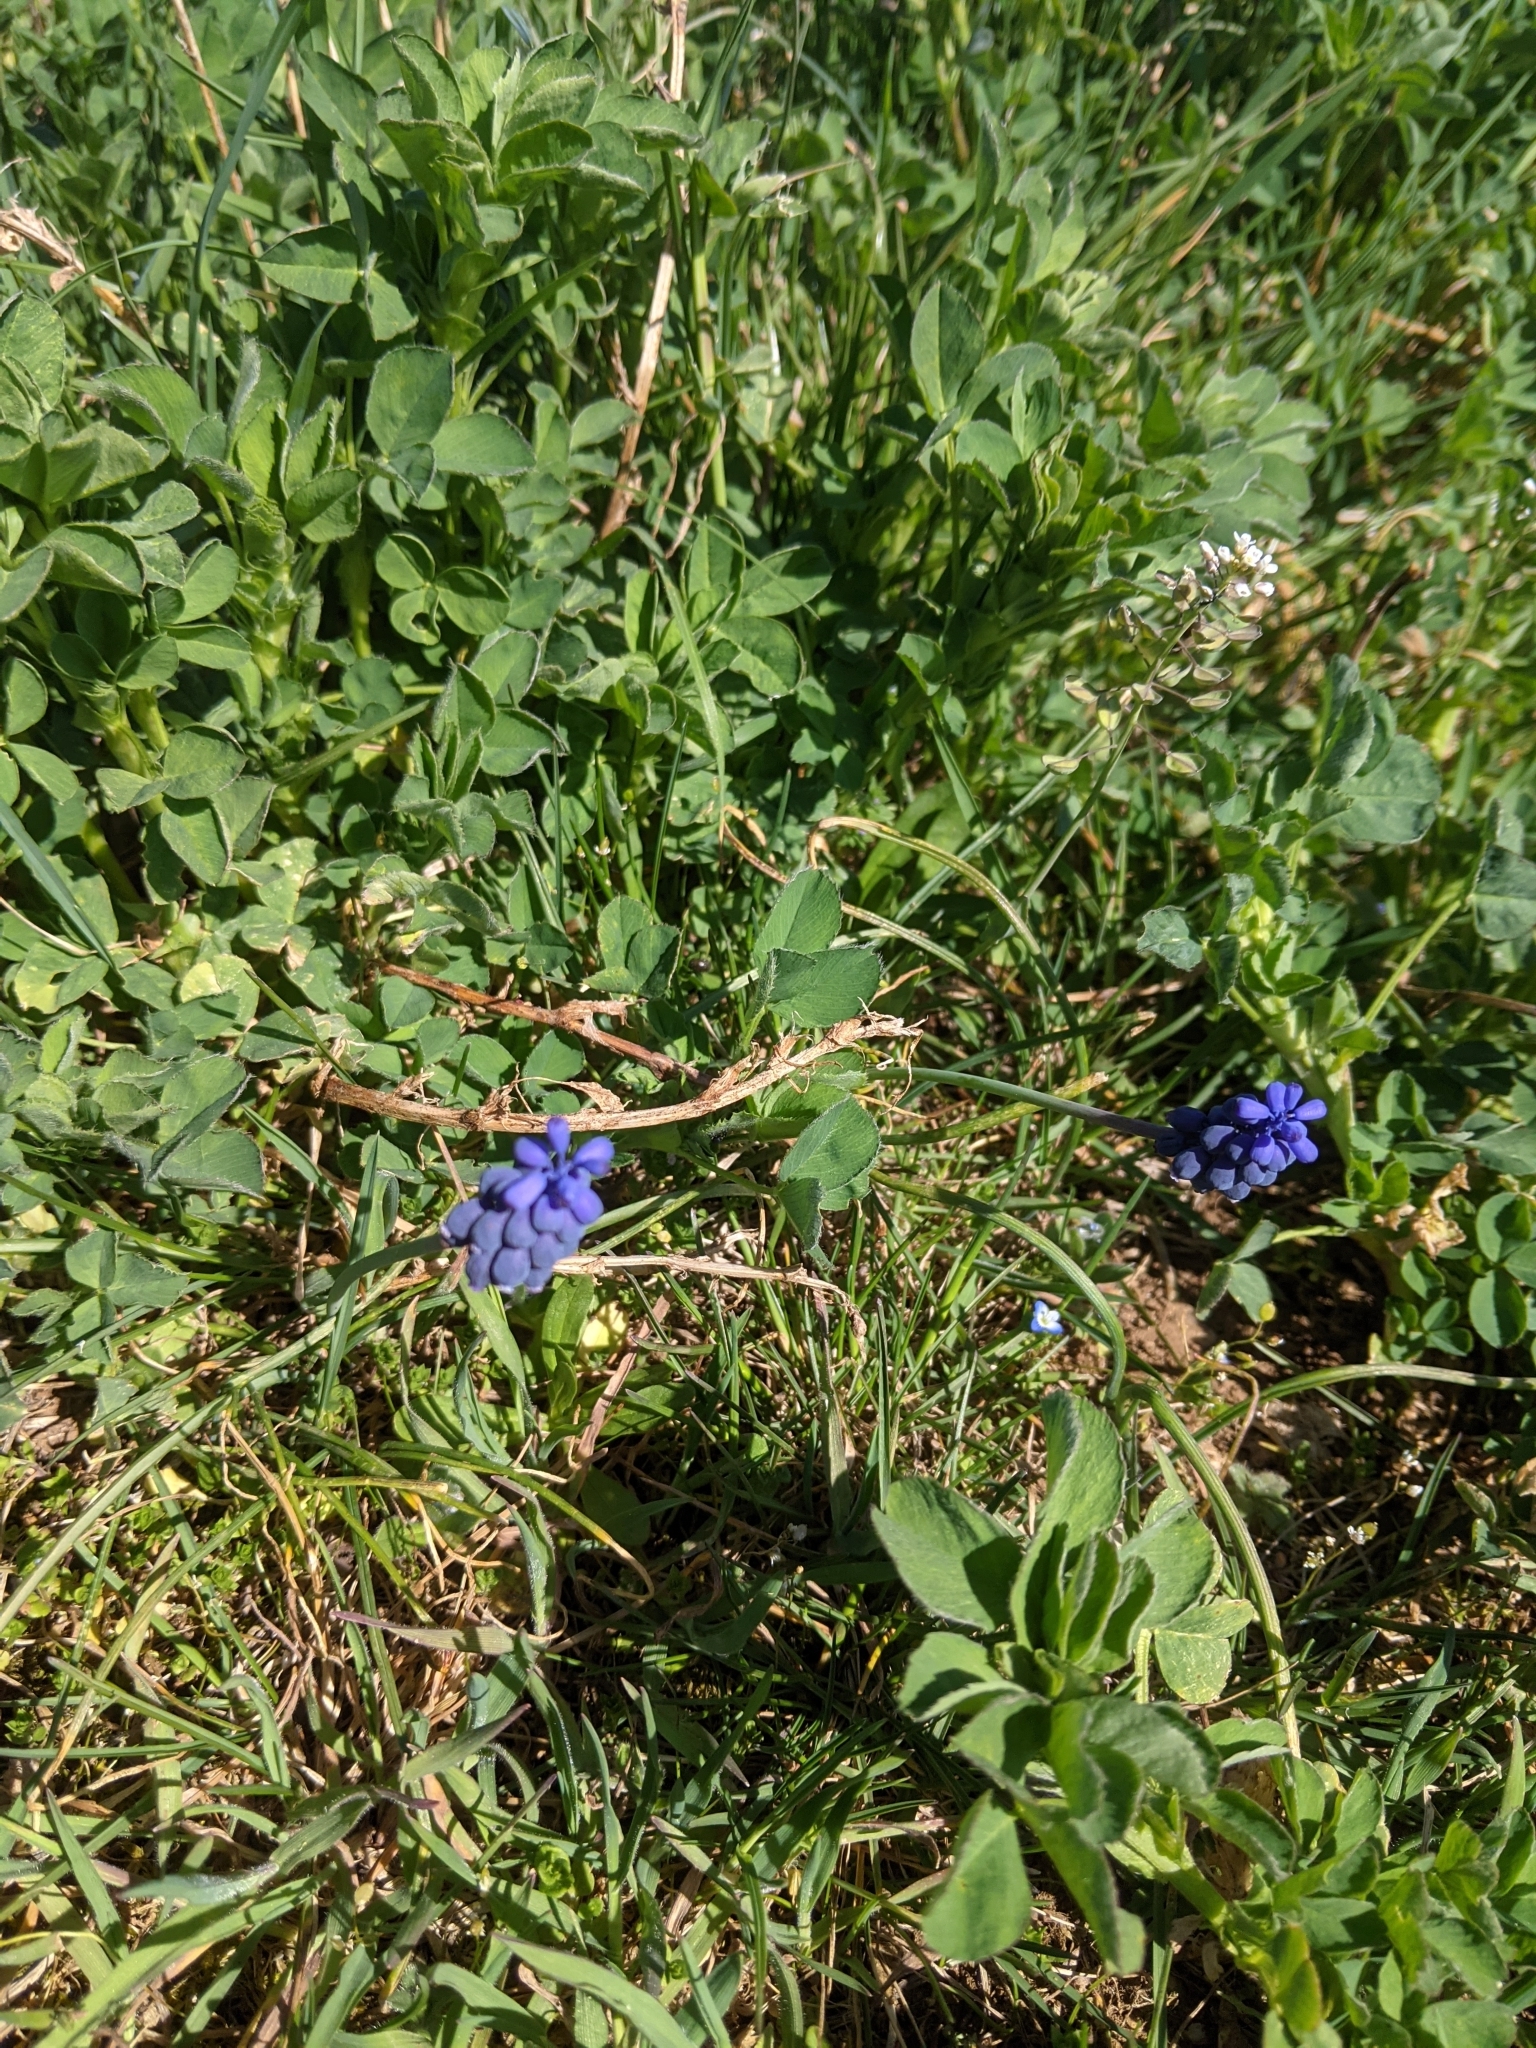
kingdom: Plantae
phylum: Tracheophyta
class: Liliopsida
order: Asparagales
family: Asparagaceae
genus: Muscari
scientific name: Muscari neglectum
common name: Grape-hyacinth
